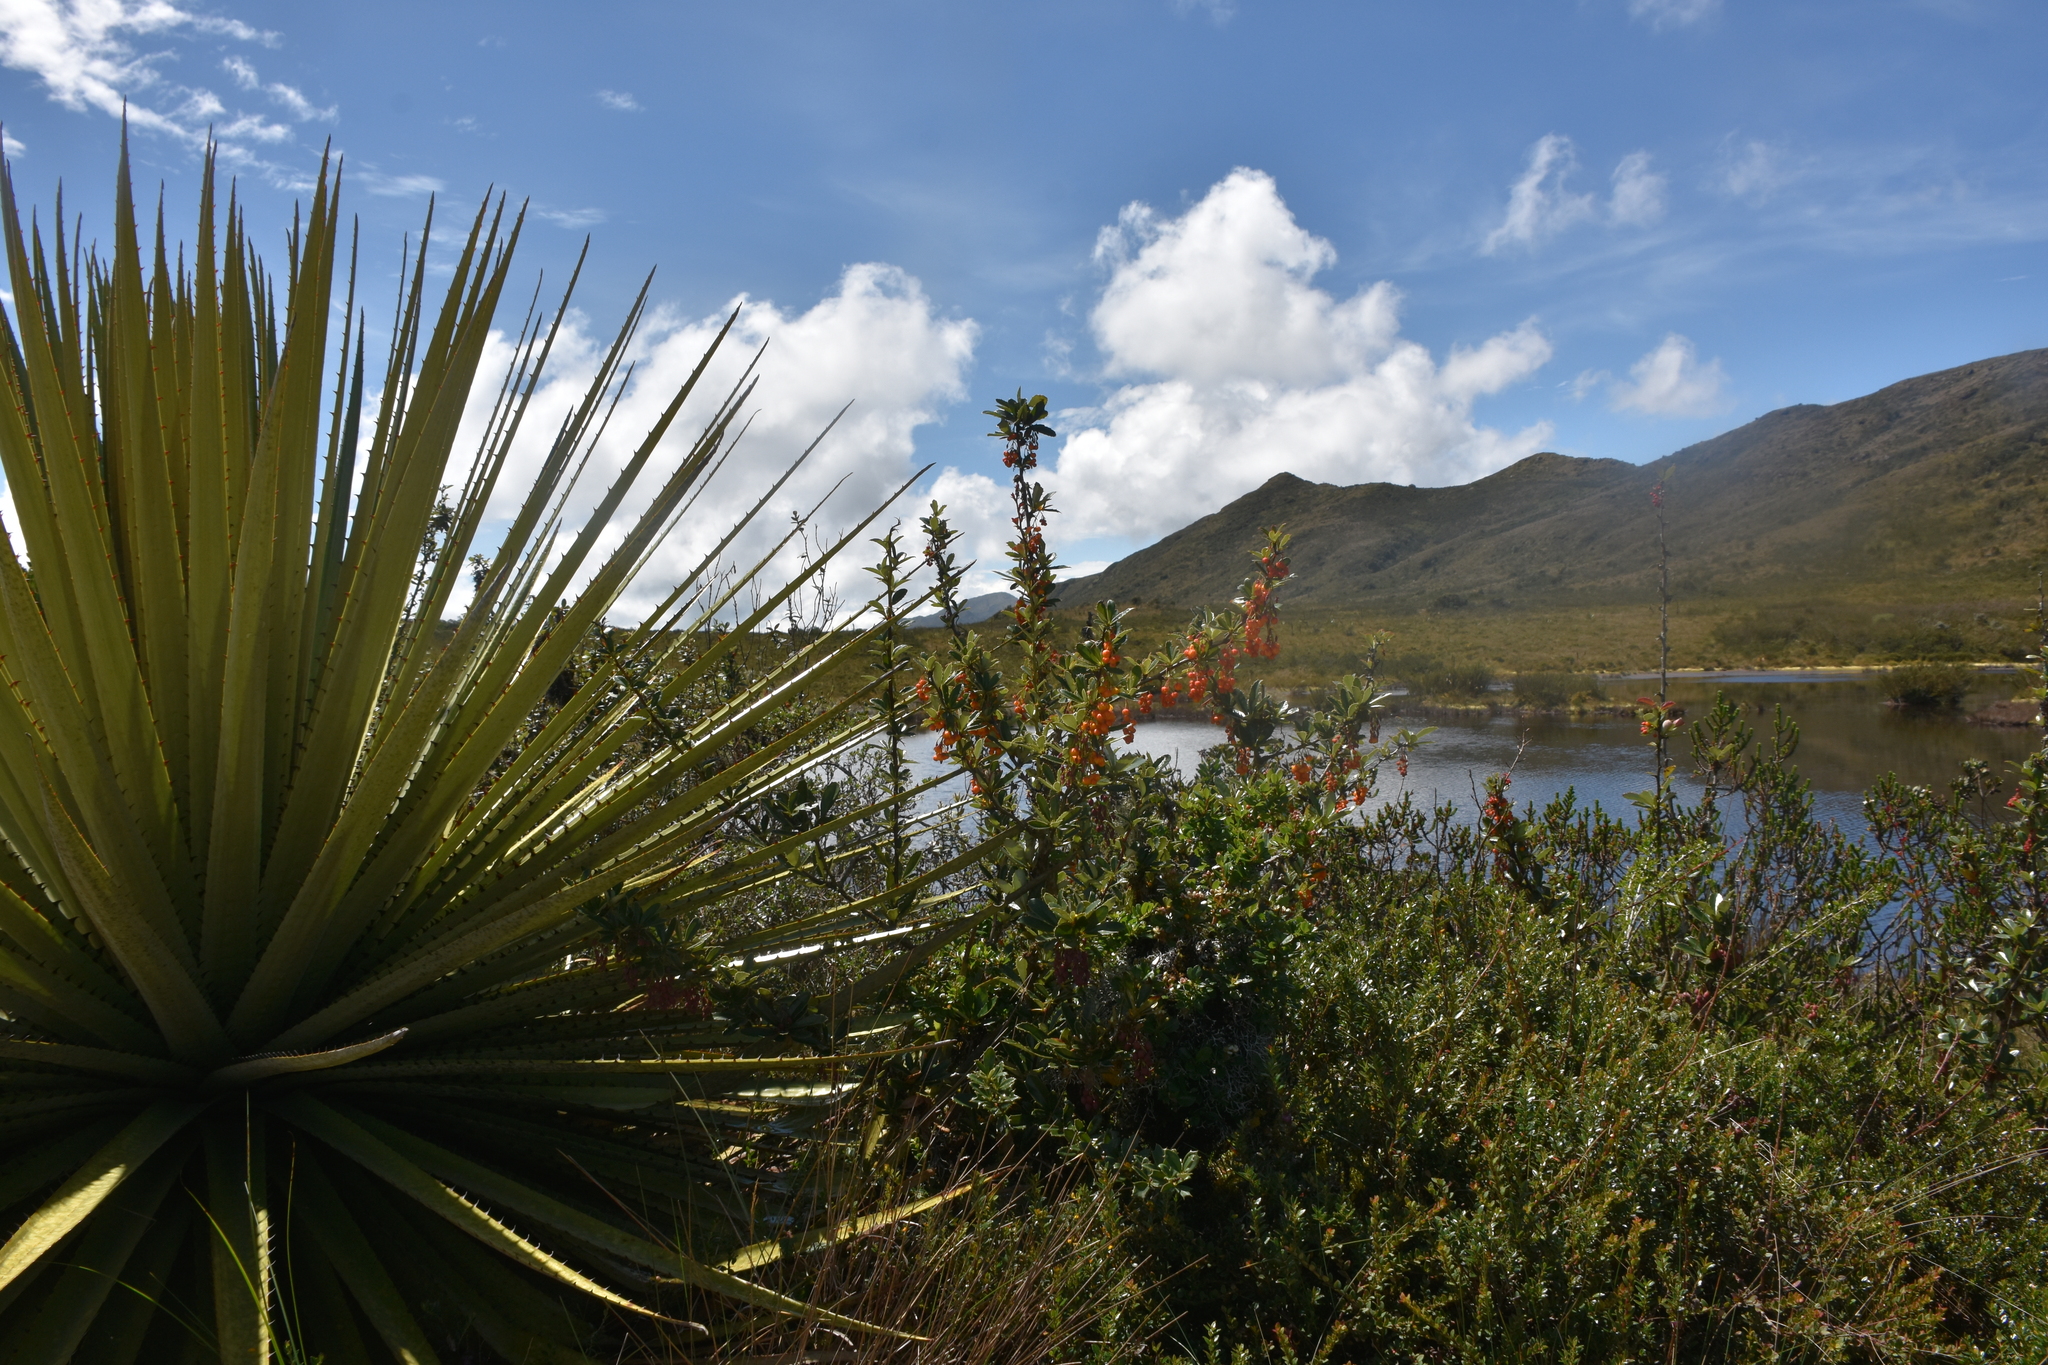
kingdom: Plantae
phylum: Tracheophyta
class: Liliopsida
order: Poales
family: Bromeliaceae
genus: Puya
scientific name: Puya goudotiana
